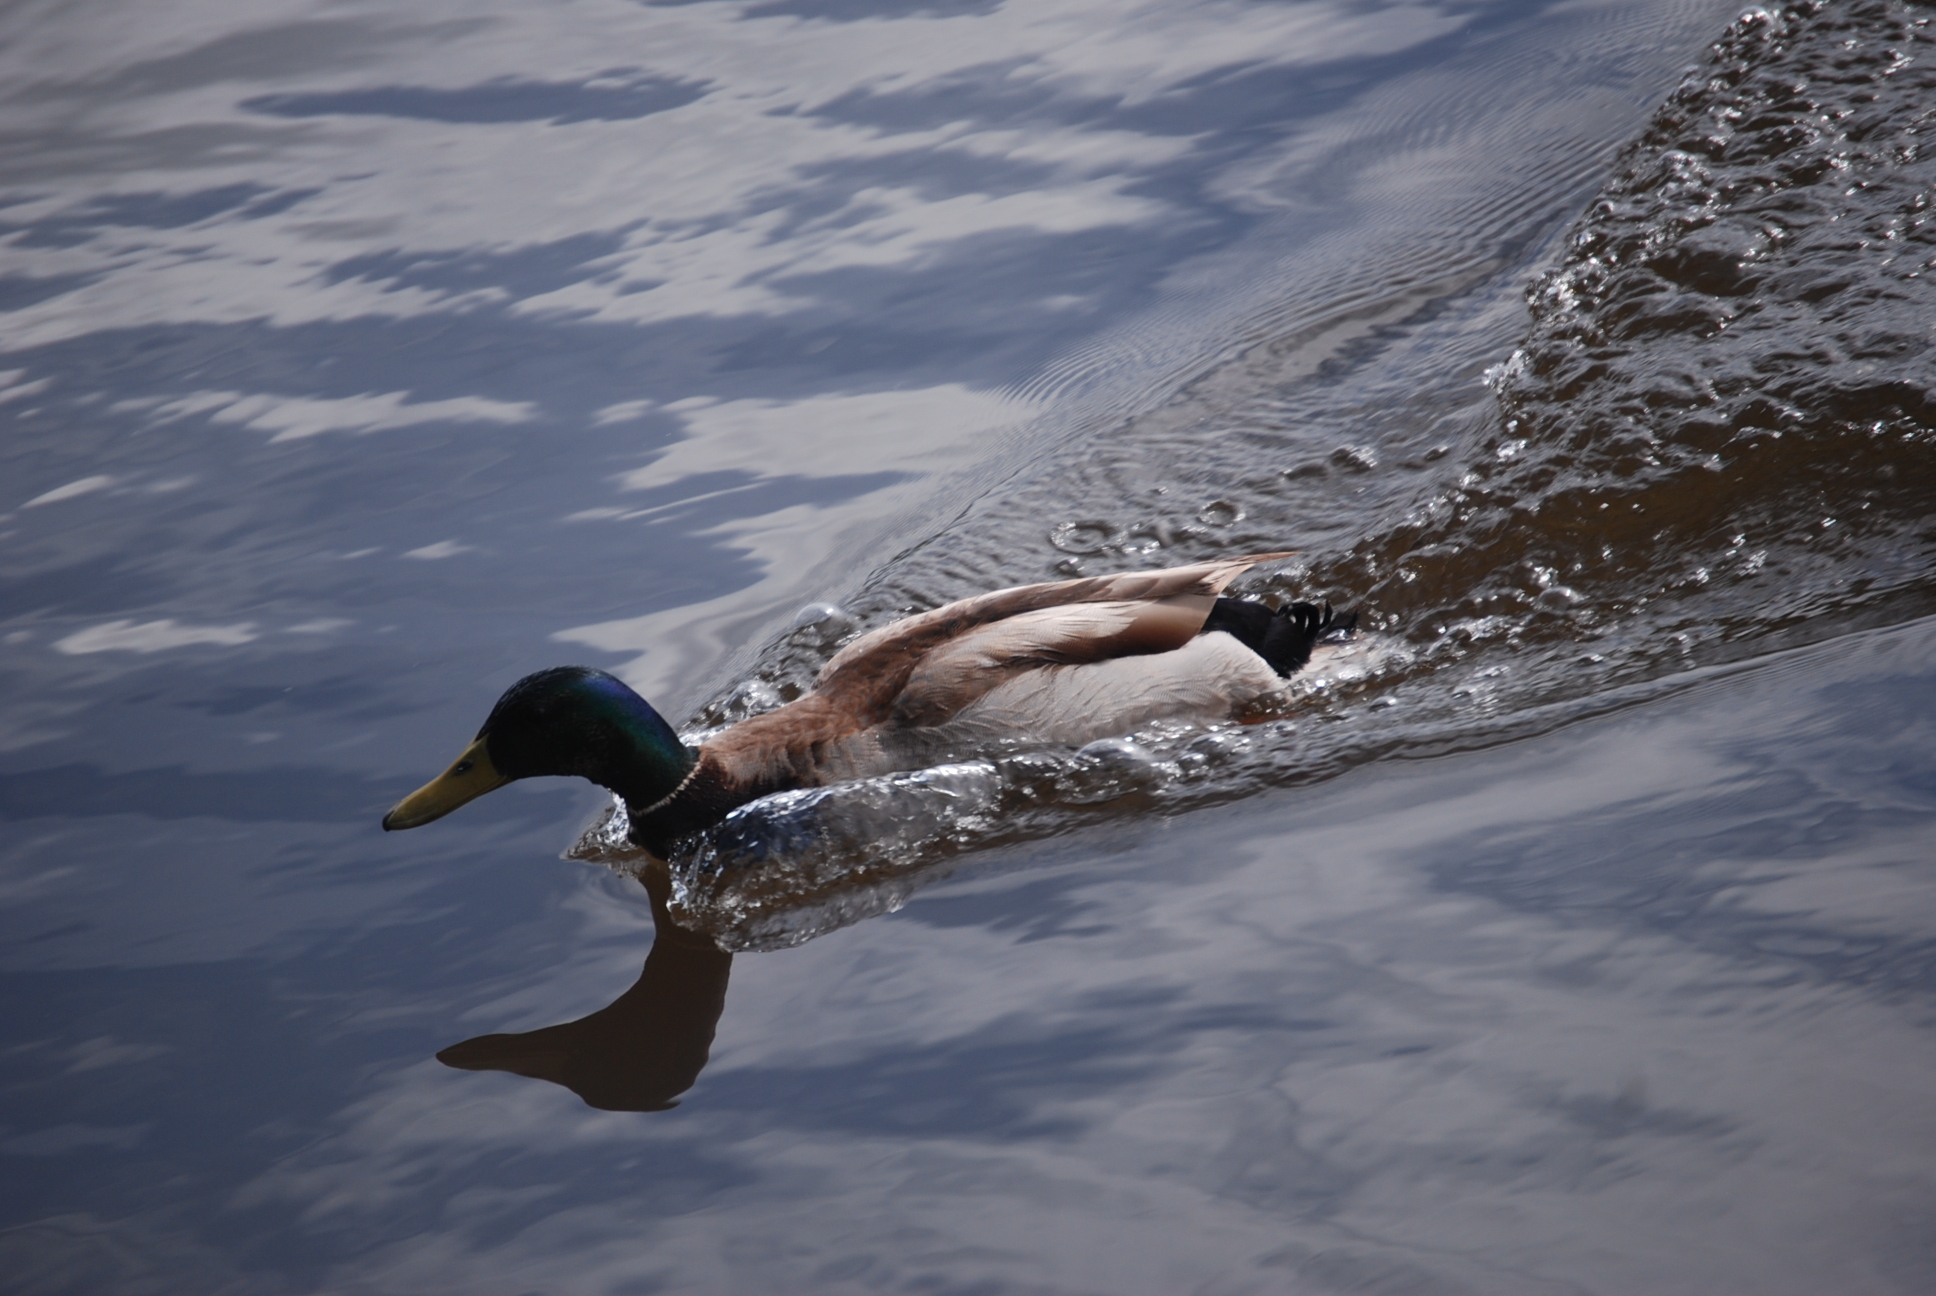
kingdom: Animalia
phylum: Chordata
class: Aves
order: Anseriformes
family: Anatidae
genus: Anas
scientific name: Anas platyrhynchos
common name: Mallard
